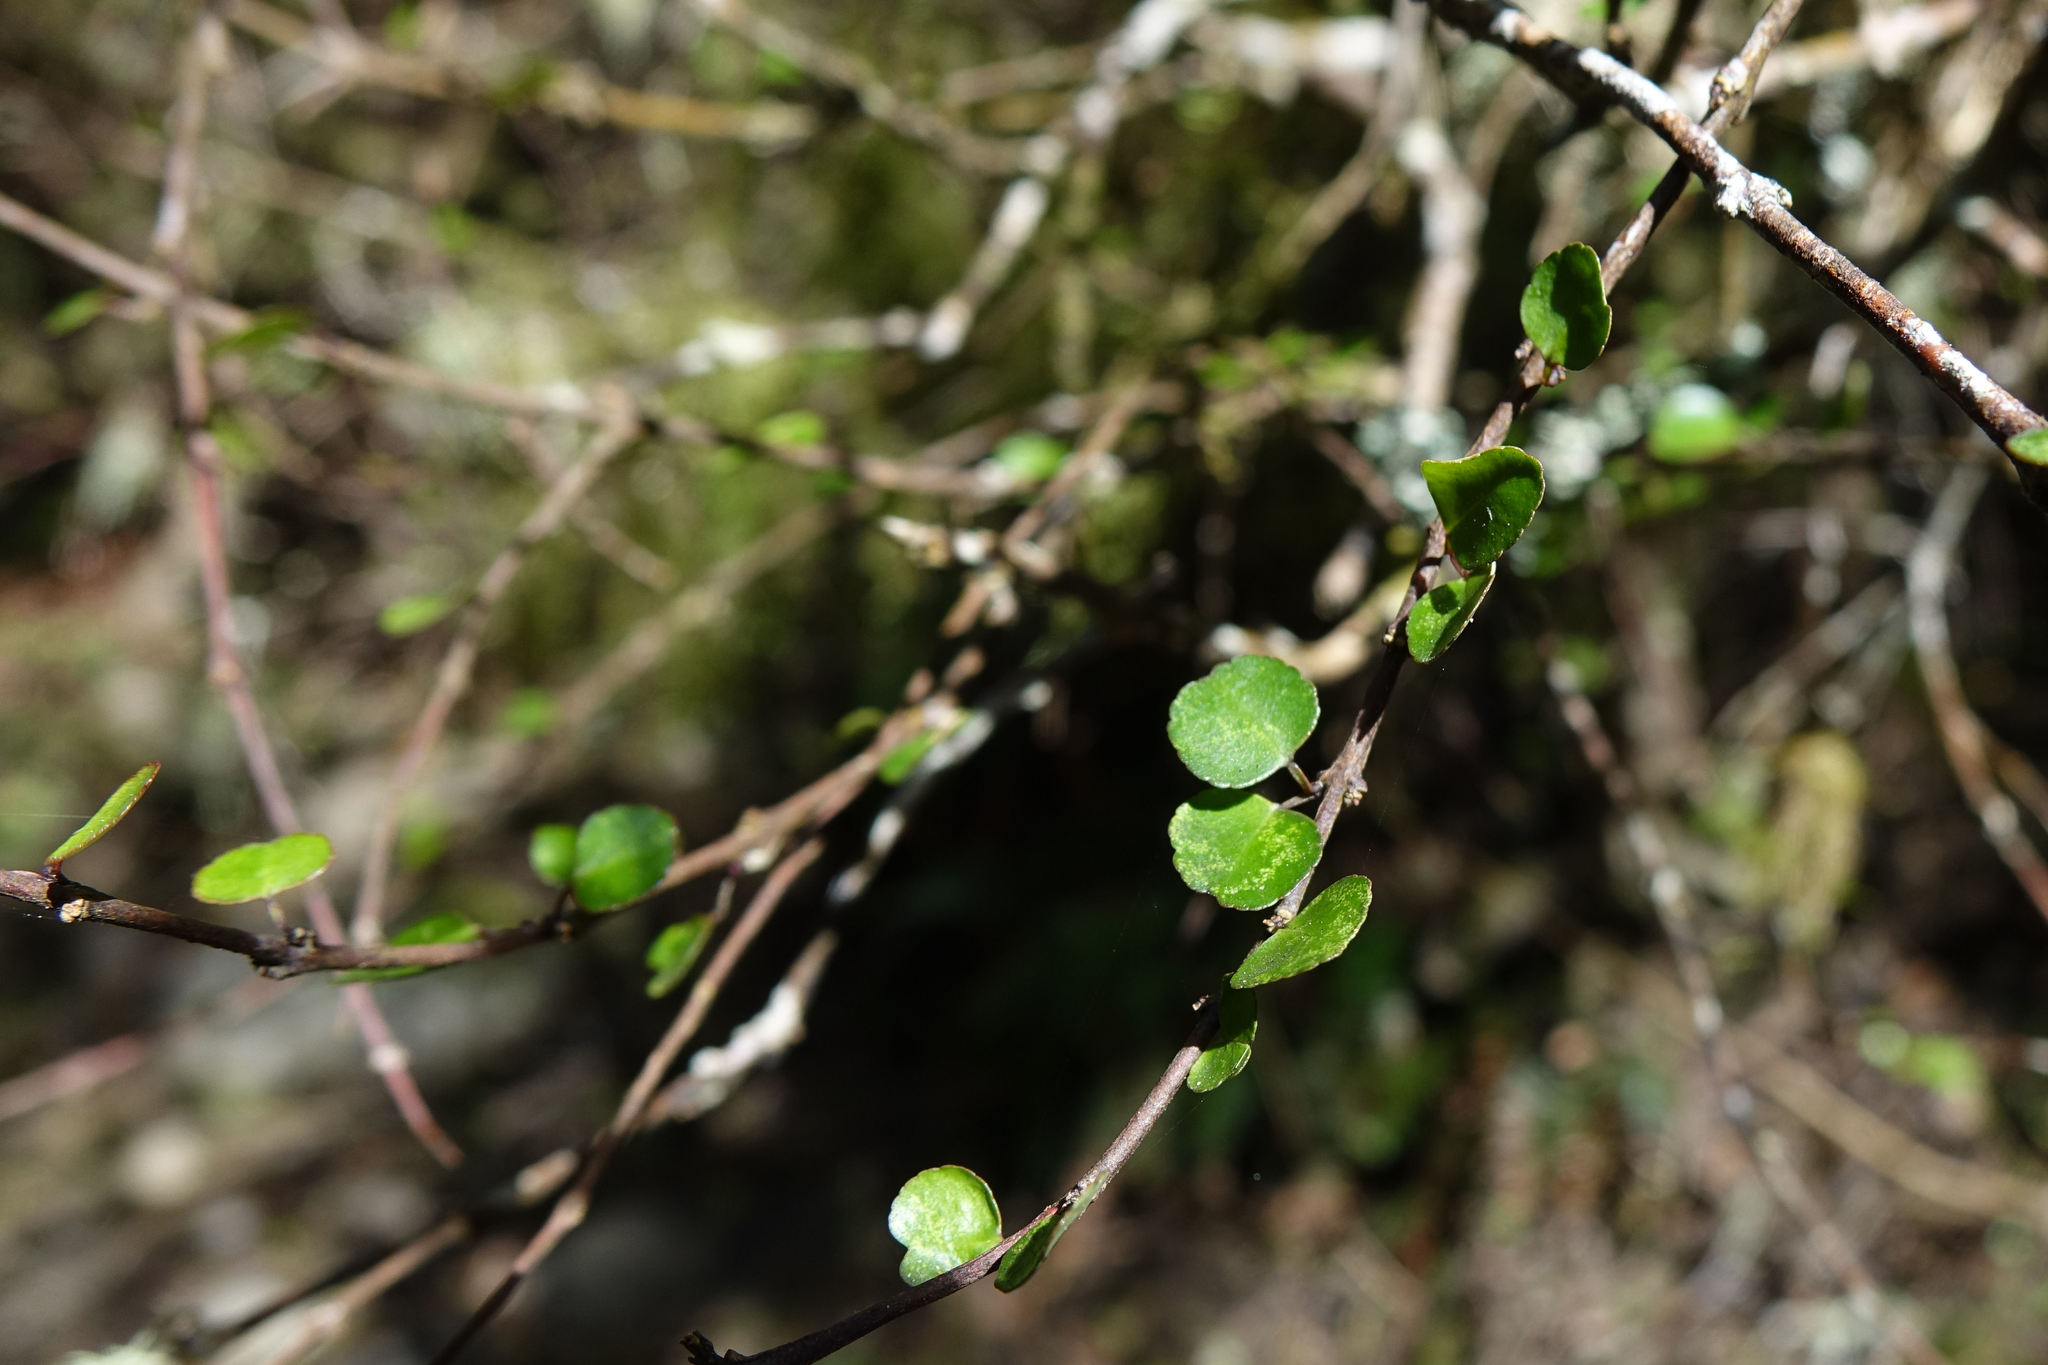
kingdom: Plantae
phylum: Tracheophyta
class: Magnoliopsida
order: Sapindales
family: Rutaceae
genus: Melicope
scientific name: Melicope simplex
